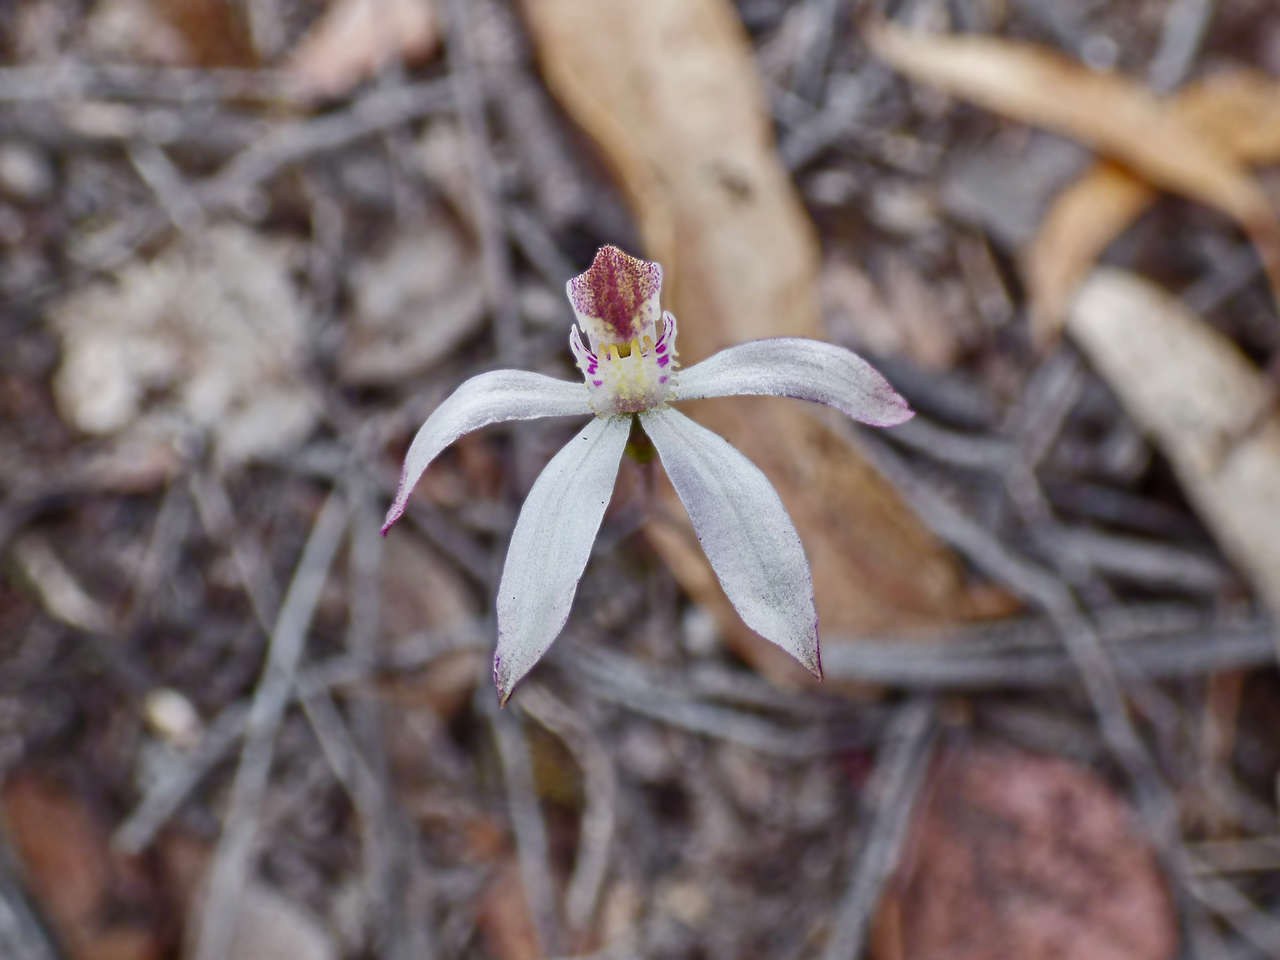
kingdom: Plantae
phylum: Tracheophyta
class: Liliopsida
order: Asparagales
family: Orchidaceae
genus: Caladenia
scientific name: Caladenia moschata
